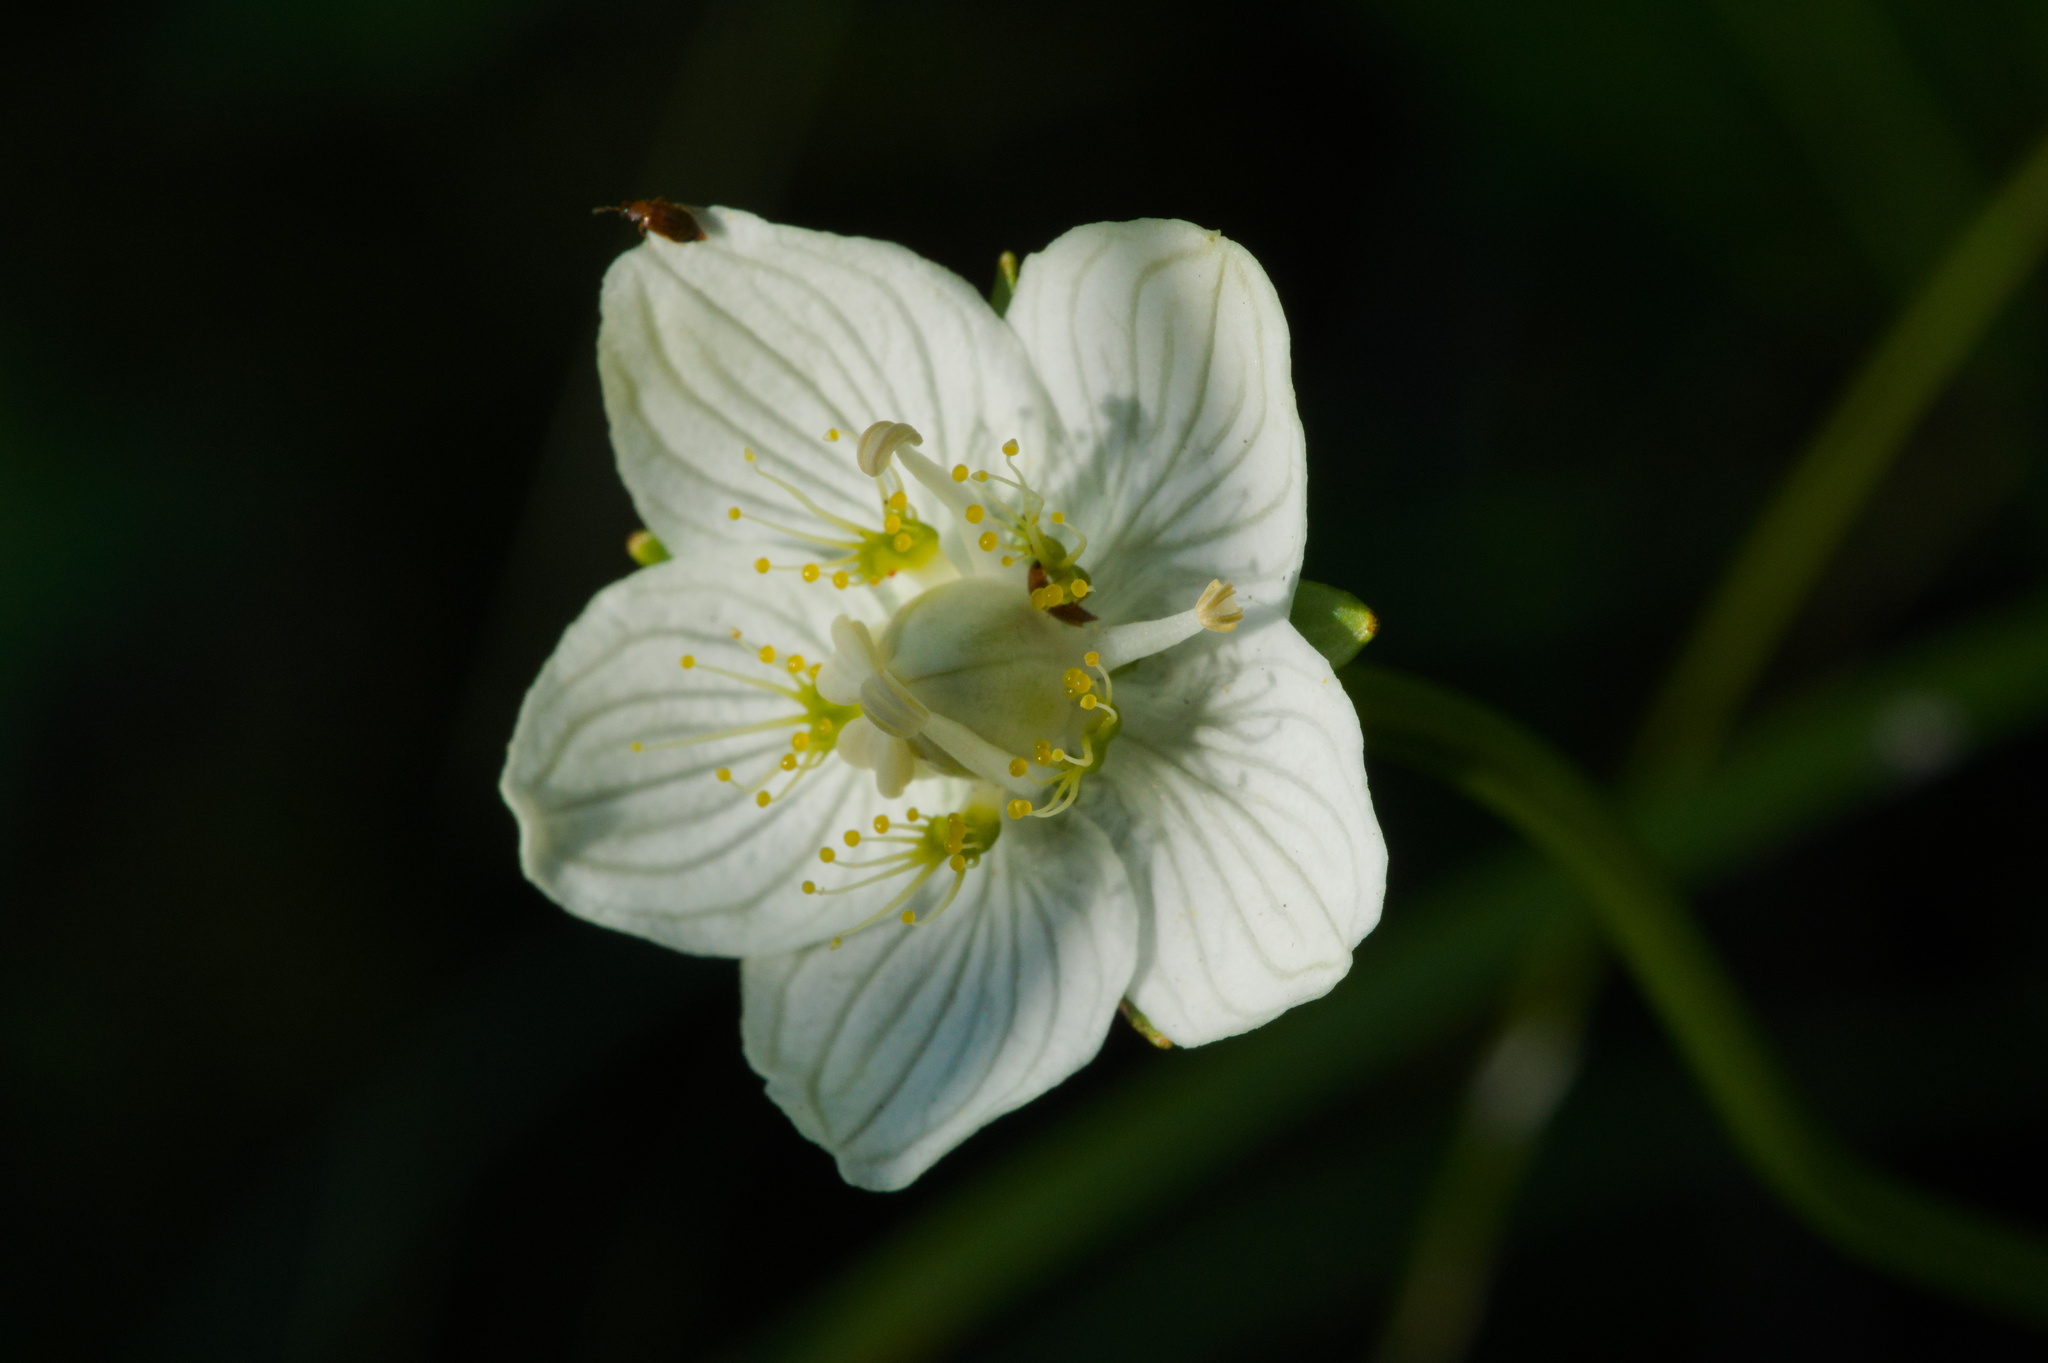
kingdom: Plantae
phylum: Tracheophyta
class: Magnoliopsida
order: Celastrales
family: Parnassiaceae
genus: Parnassia
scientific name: Parnassia palustris
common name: Grass-of-parnassus
